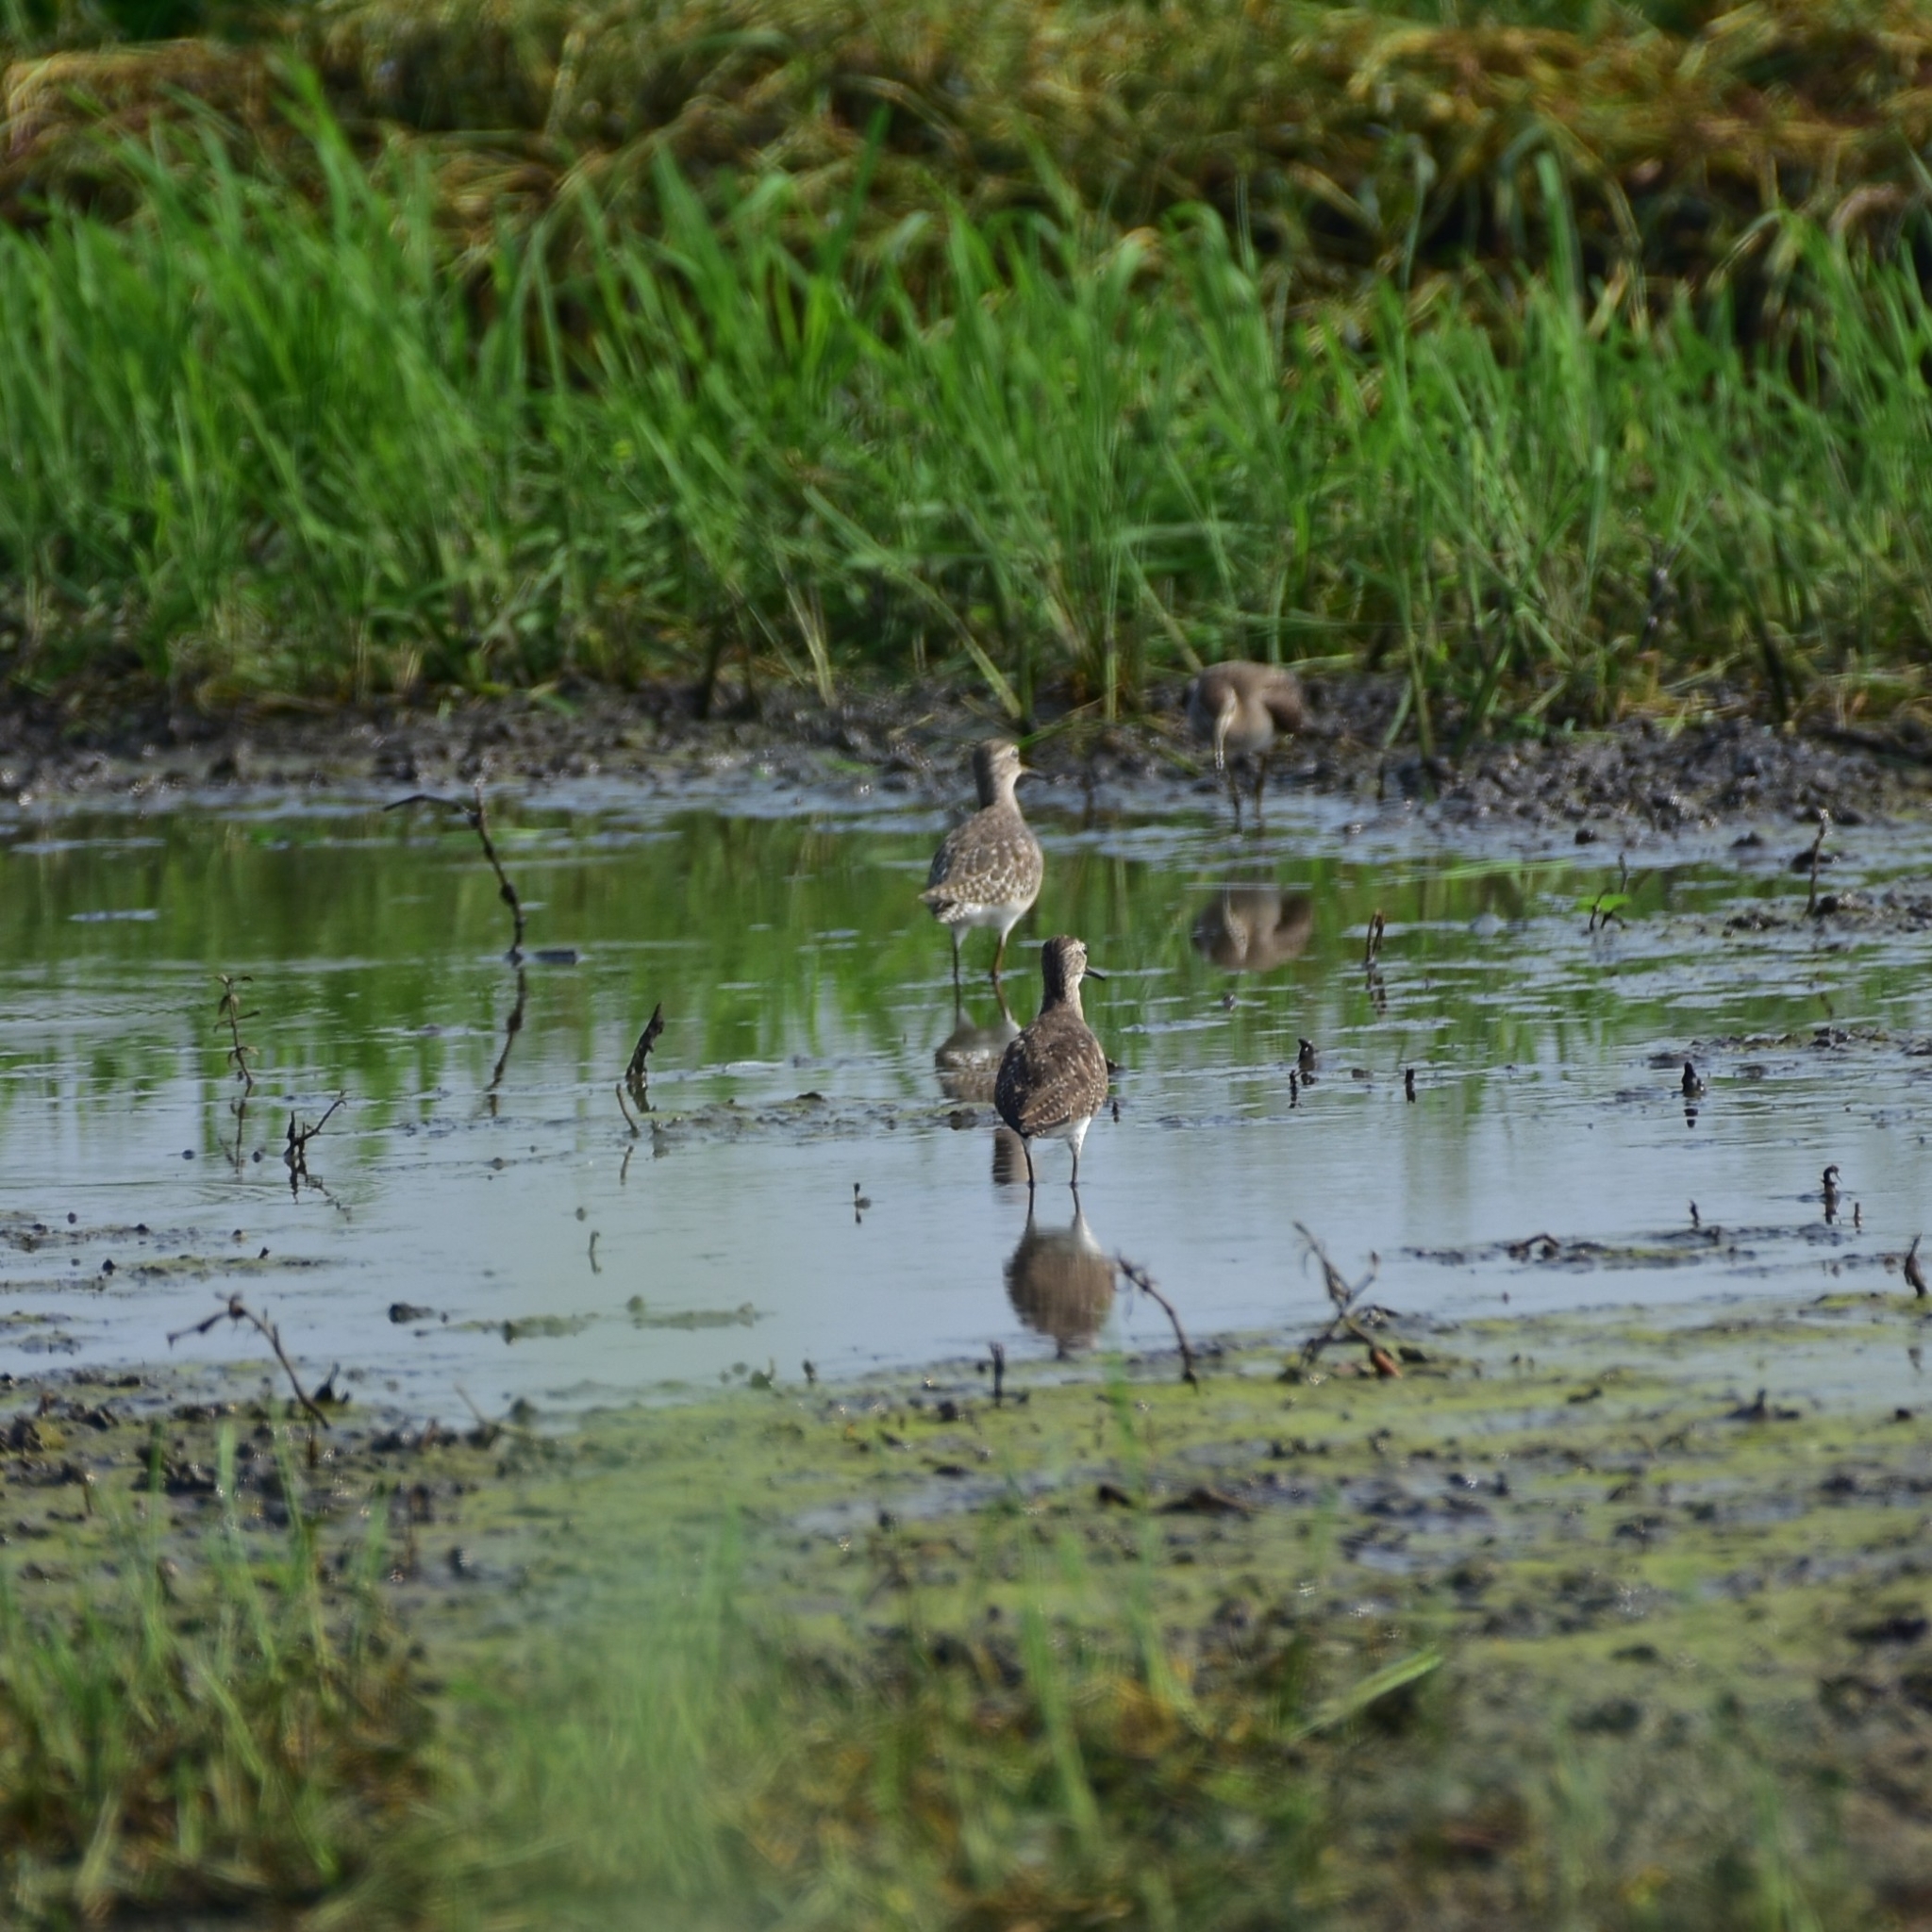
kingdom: Animalia
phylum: Chordata
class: Aves
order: Charadriiformes
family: Scolopacidae
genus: Tringa
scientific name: Tringa glareola
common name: Wood sandpiper
